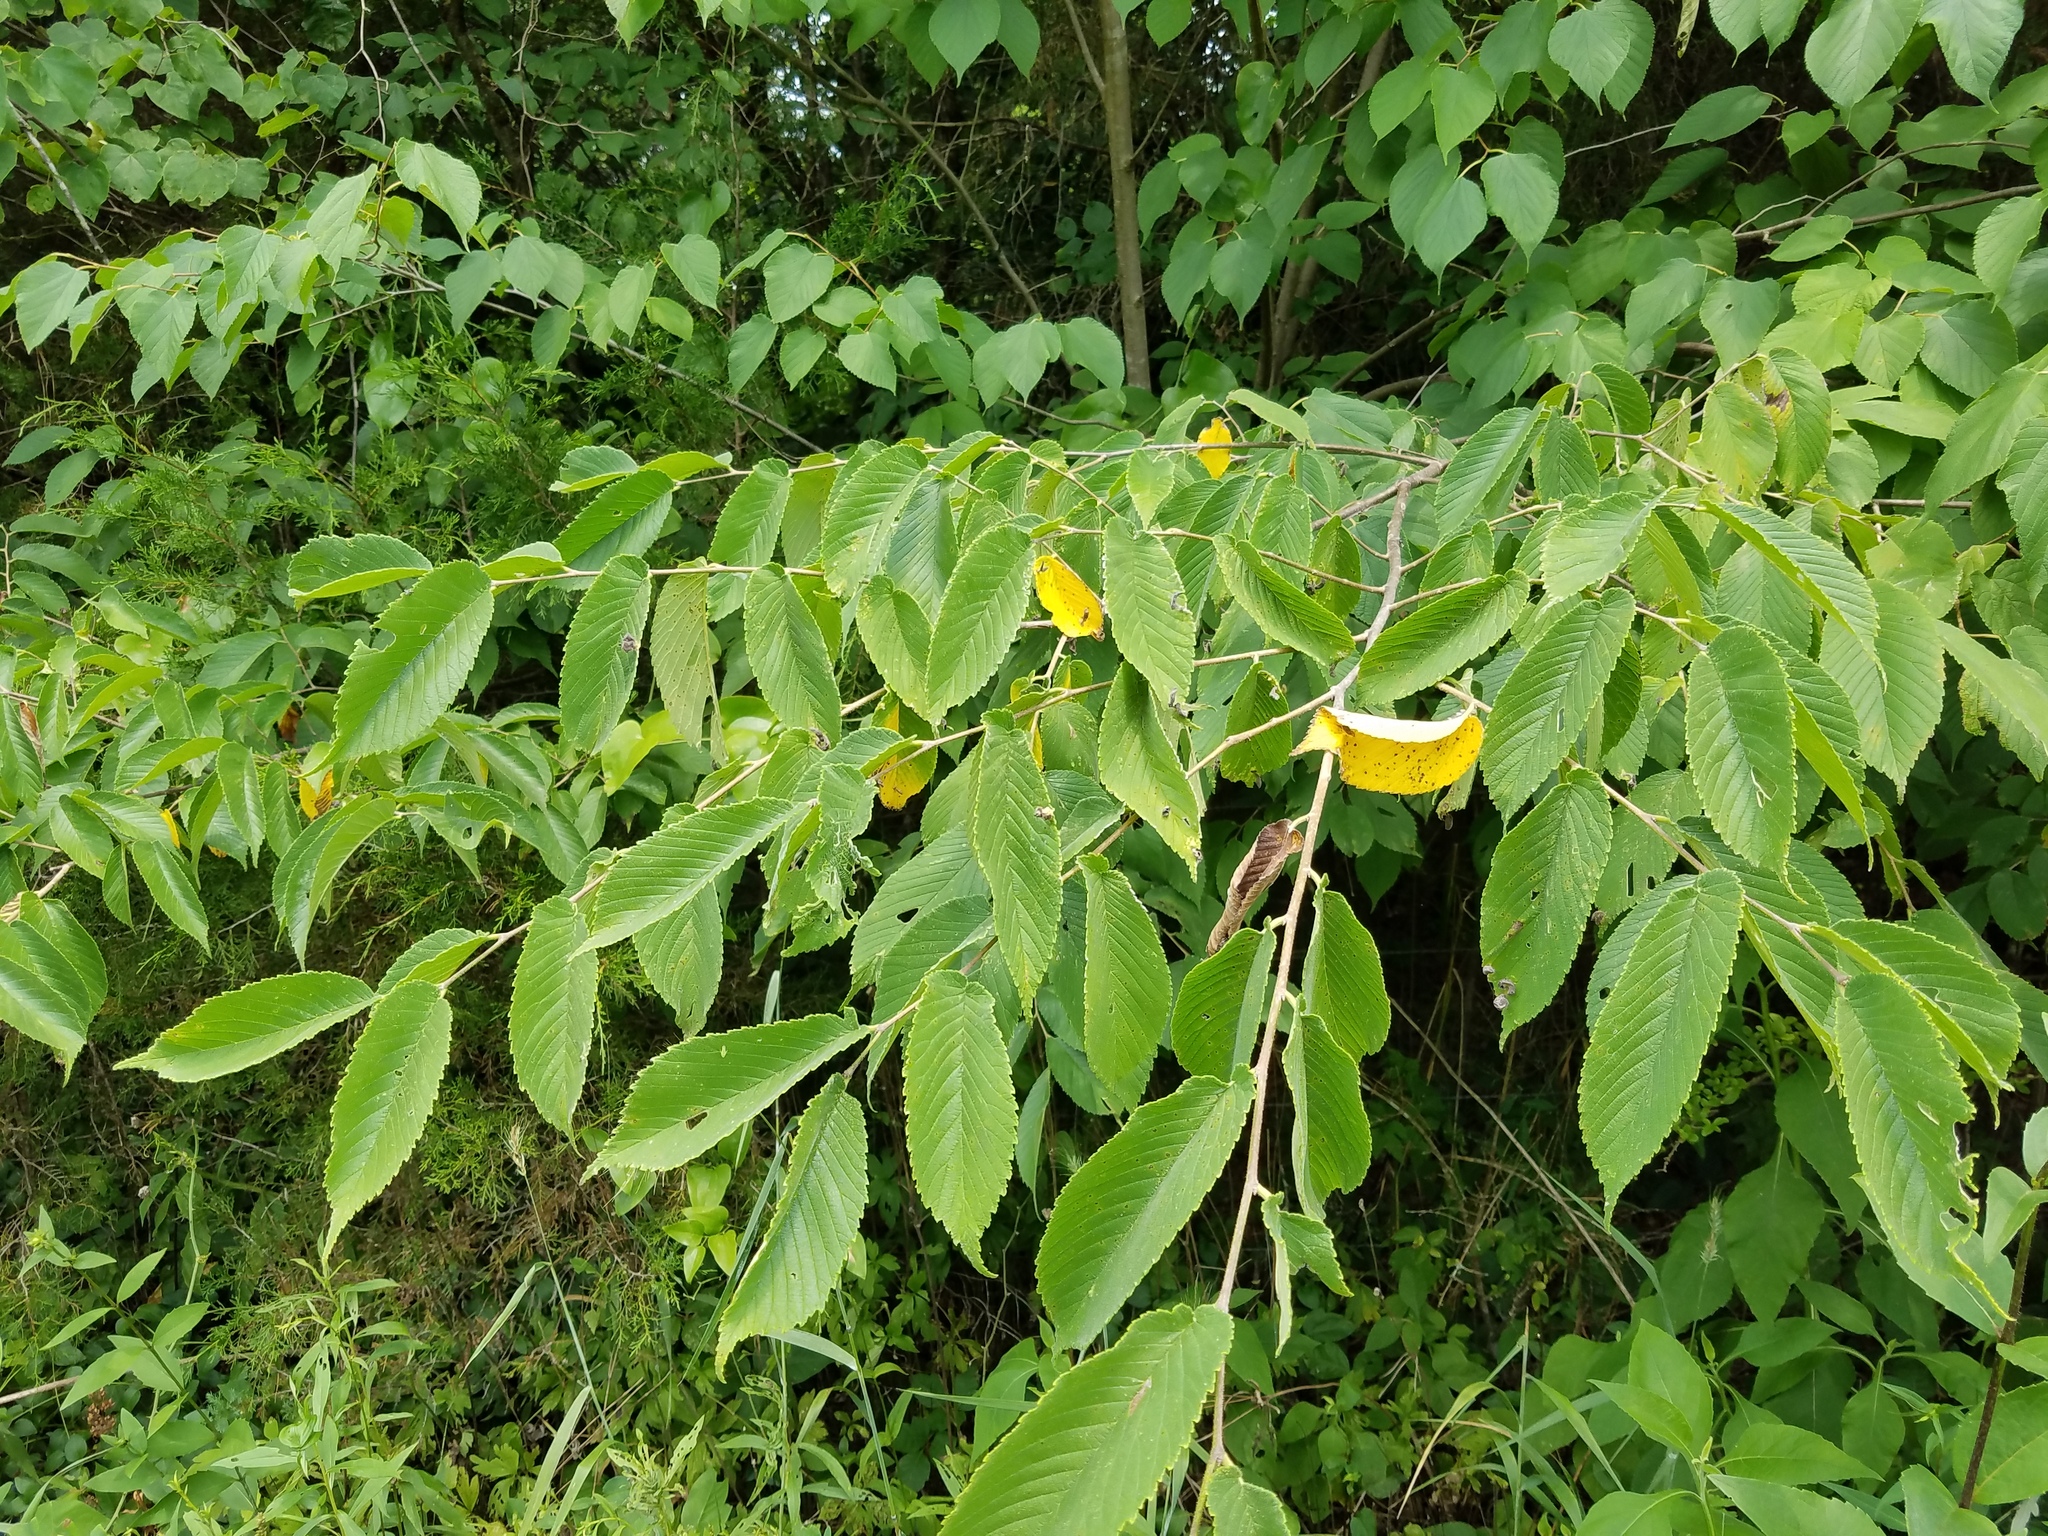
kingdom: Plantae
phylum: Tracheophyta
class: Magnoliopsida
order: Rosales
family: Ulmaceae
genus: Ulmus
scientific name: Ulmus rubra
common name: Slippery elm
